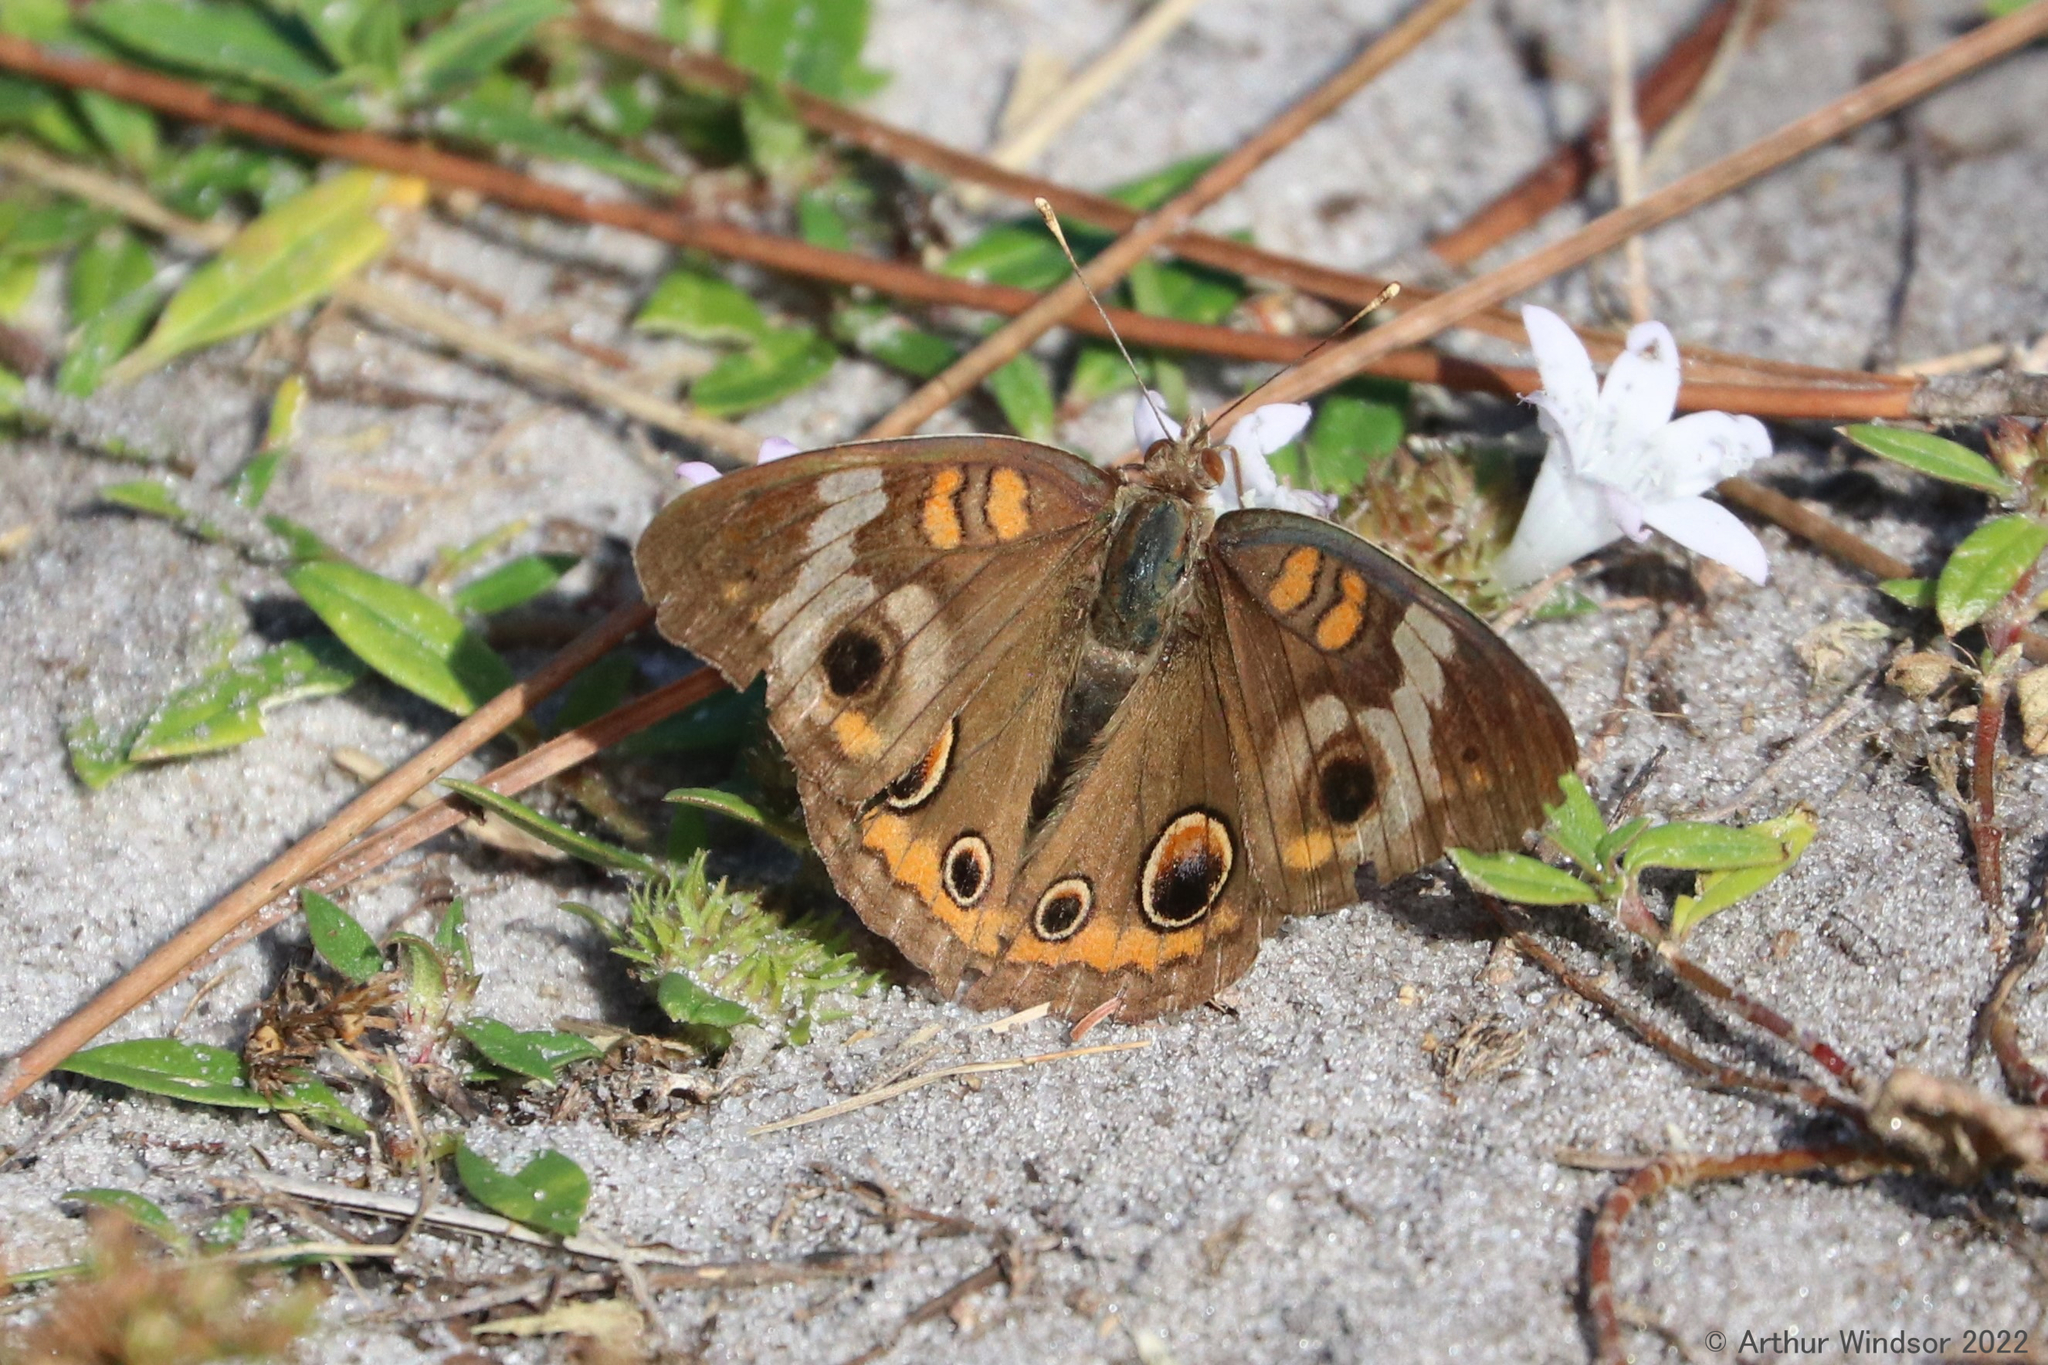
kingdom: Animalia
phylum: Arthropoda
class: Insecta
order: Lepidoptera
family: Nymphalidae
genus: Junonia
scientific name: Junonia coenia
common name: Common buckeye
